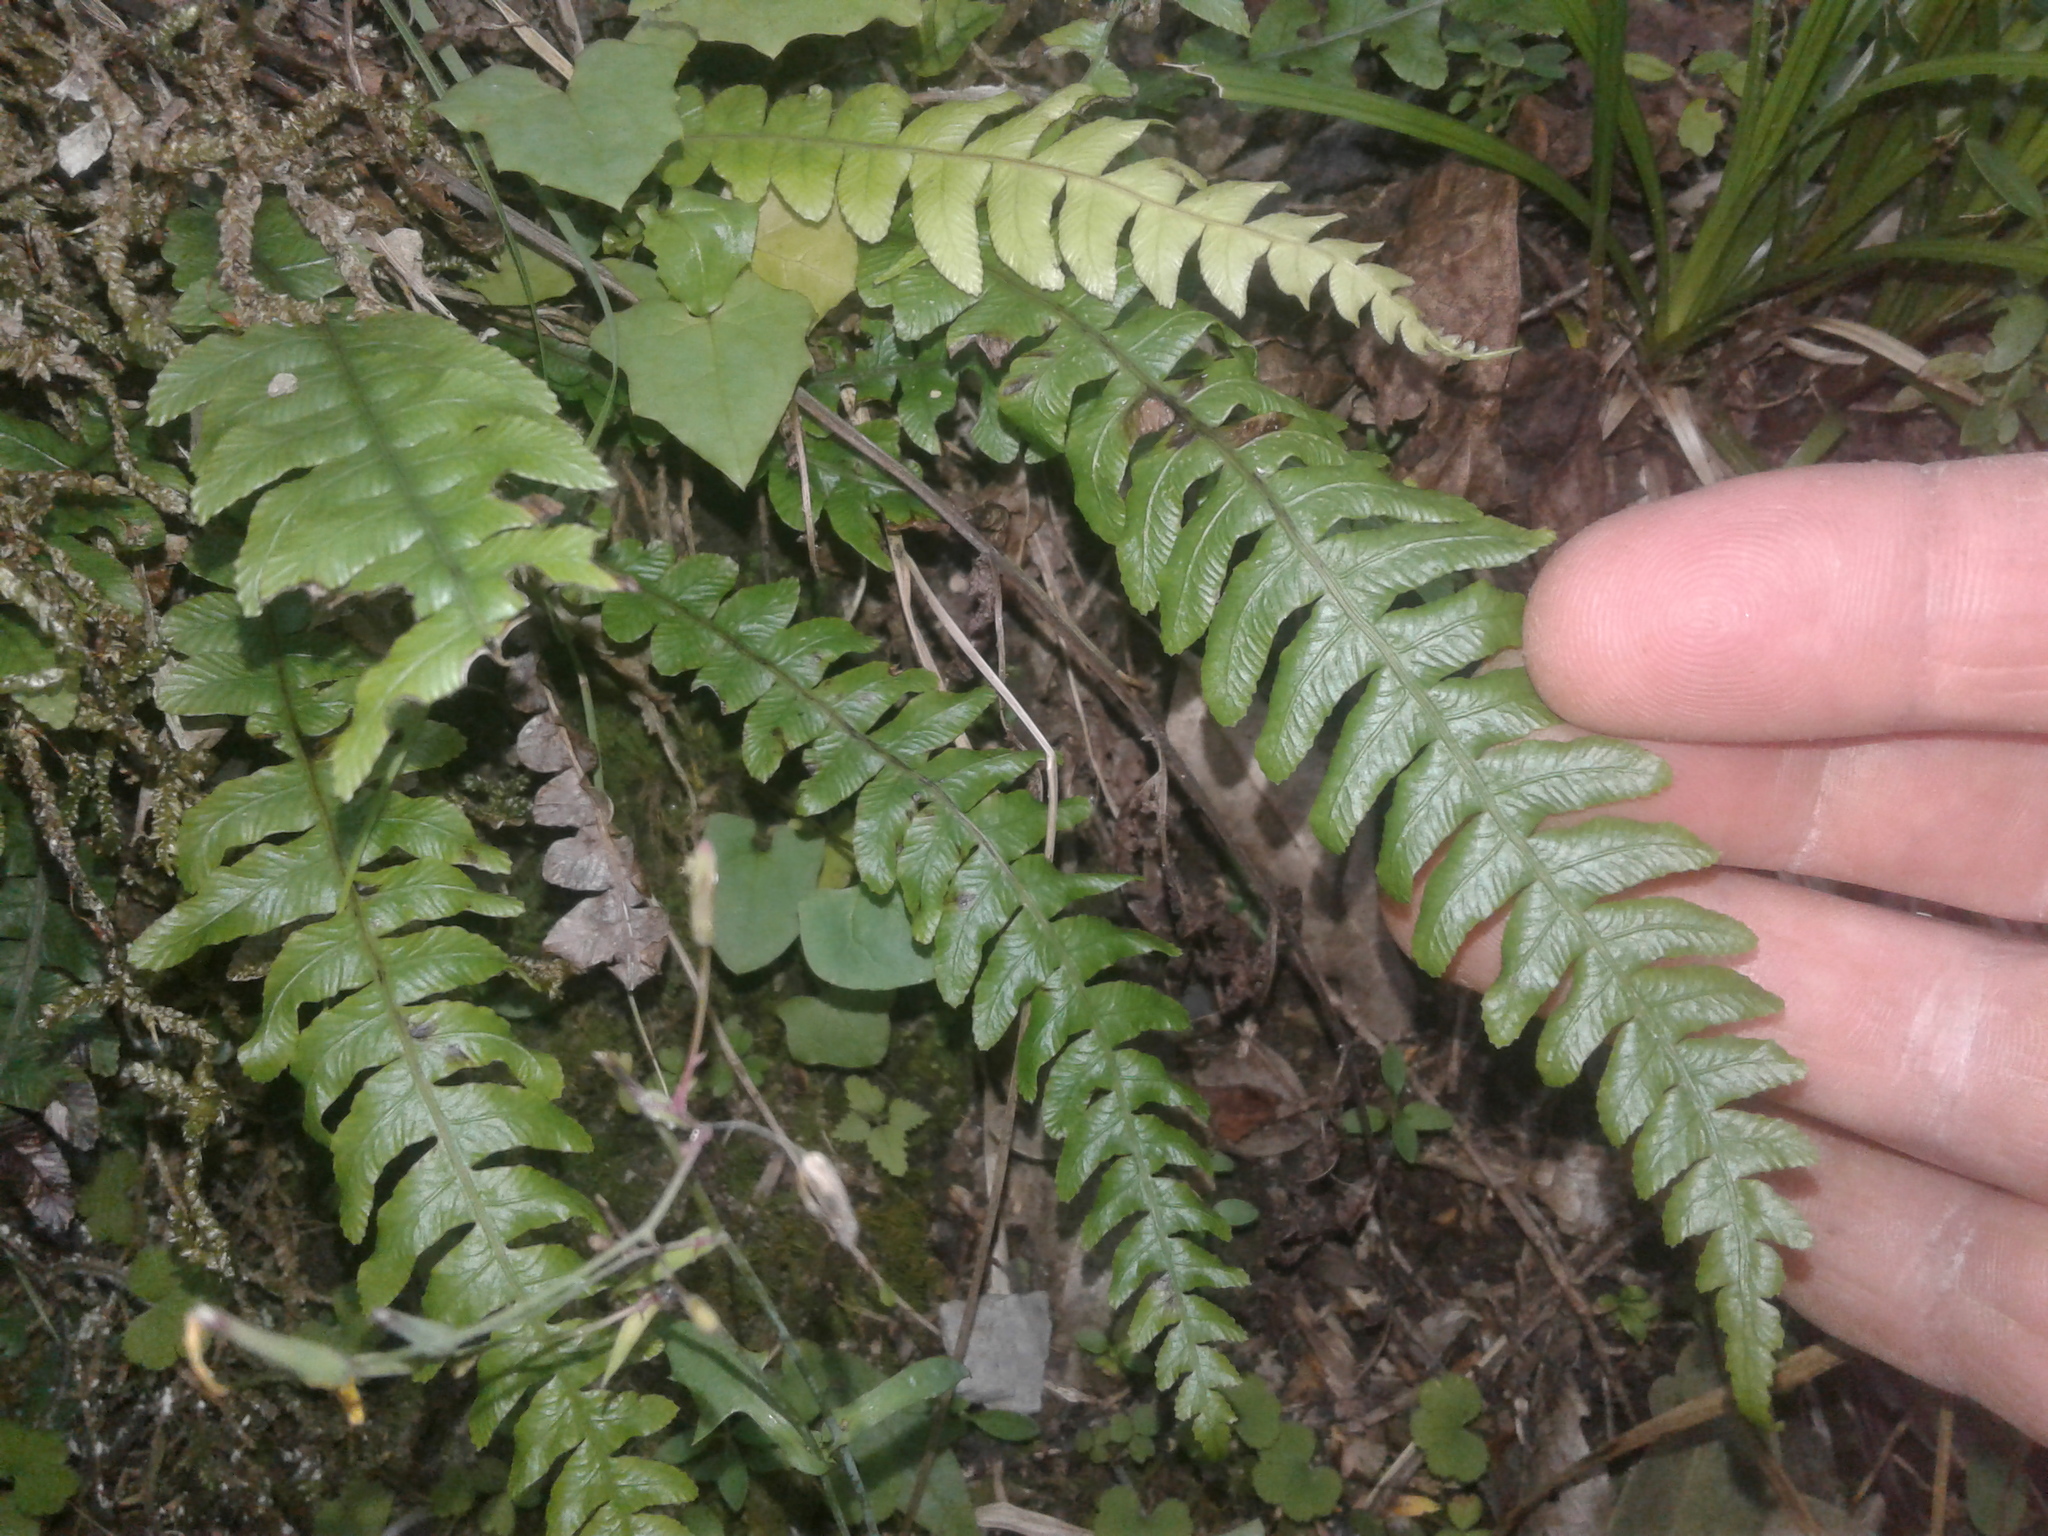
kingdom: Plantae
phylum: Tracheophyta
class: Polypodiopsida
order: Polypodiales
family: Blechnaceae
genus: Austroblechnum
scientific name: Austroblechnum lanceolatum
